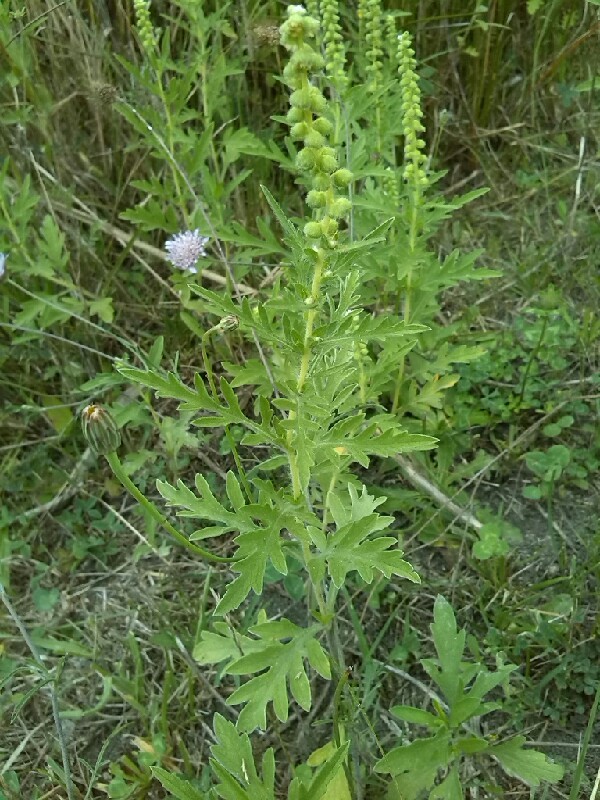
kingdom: Plantae
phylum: Tracheophyta
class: Magnoliopsida
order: Asterales
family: Asteraceae
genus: Ambrosia
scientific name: Ambrosia psilostachya
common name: Perennial ragweed
